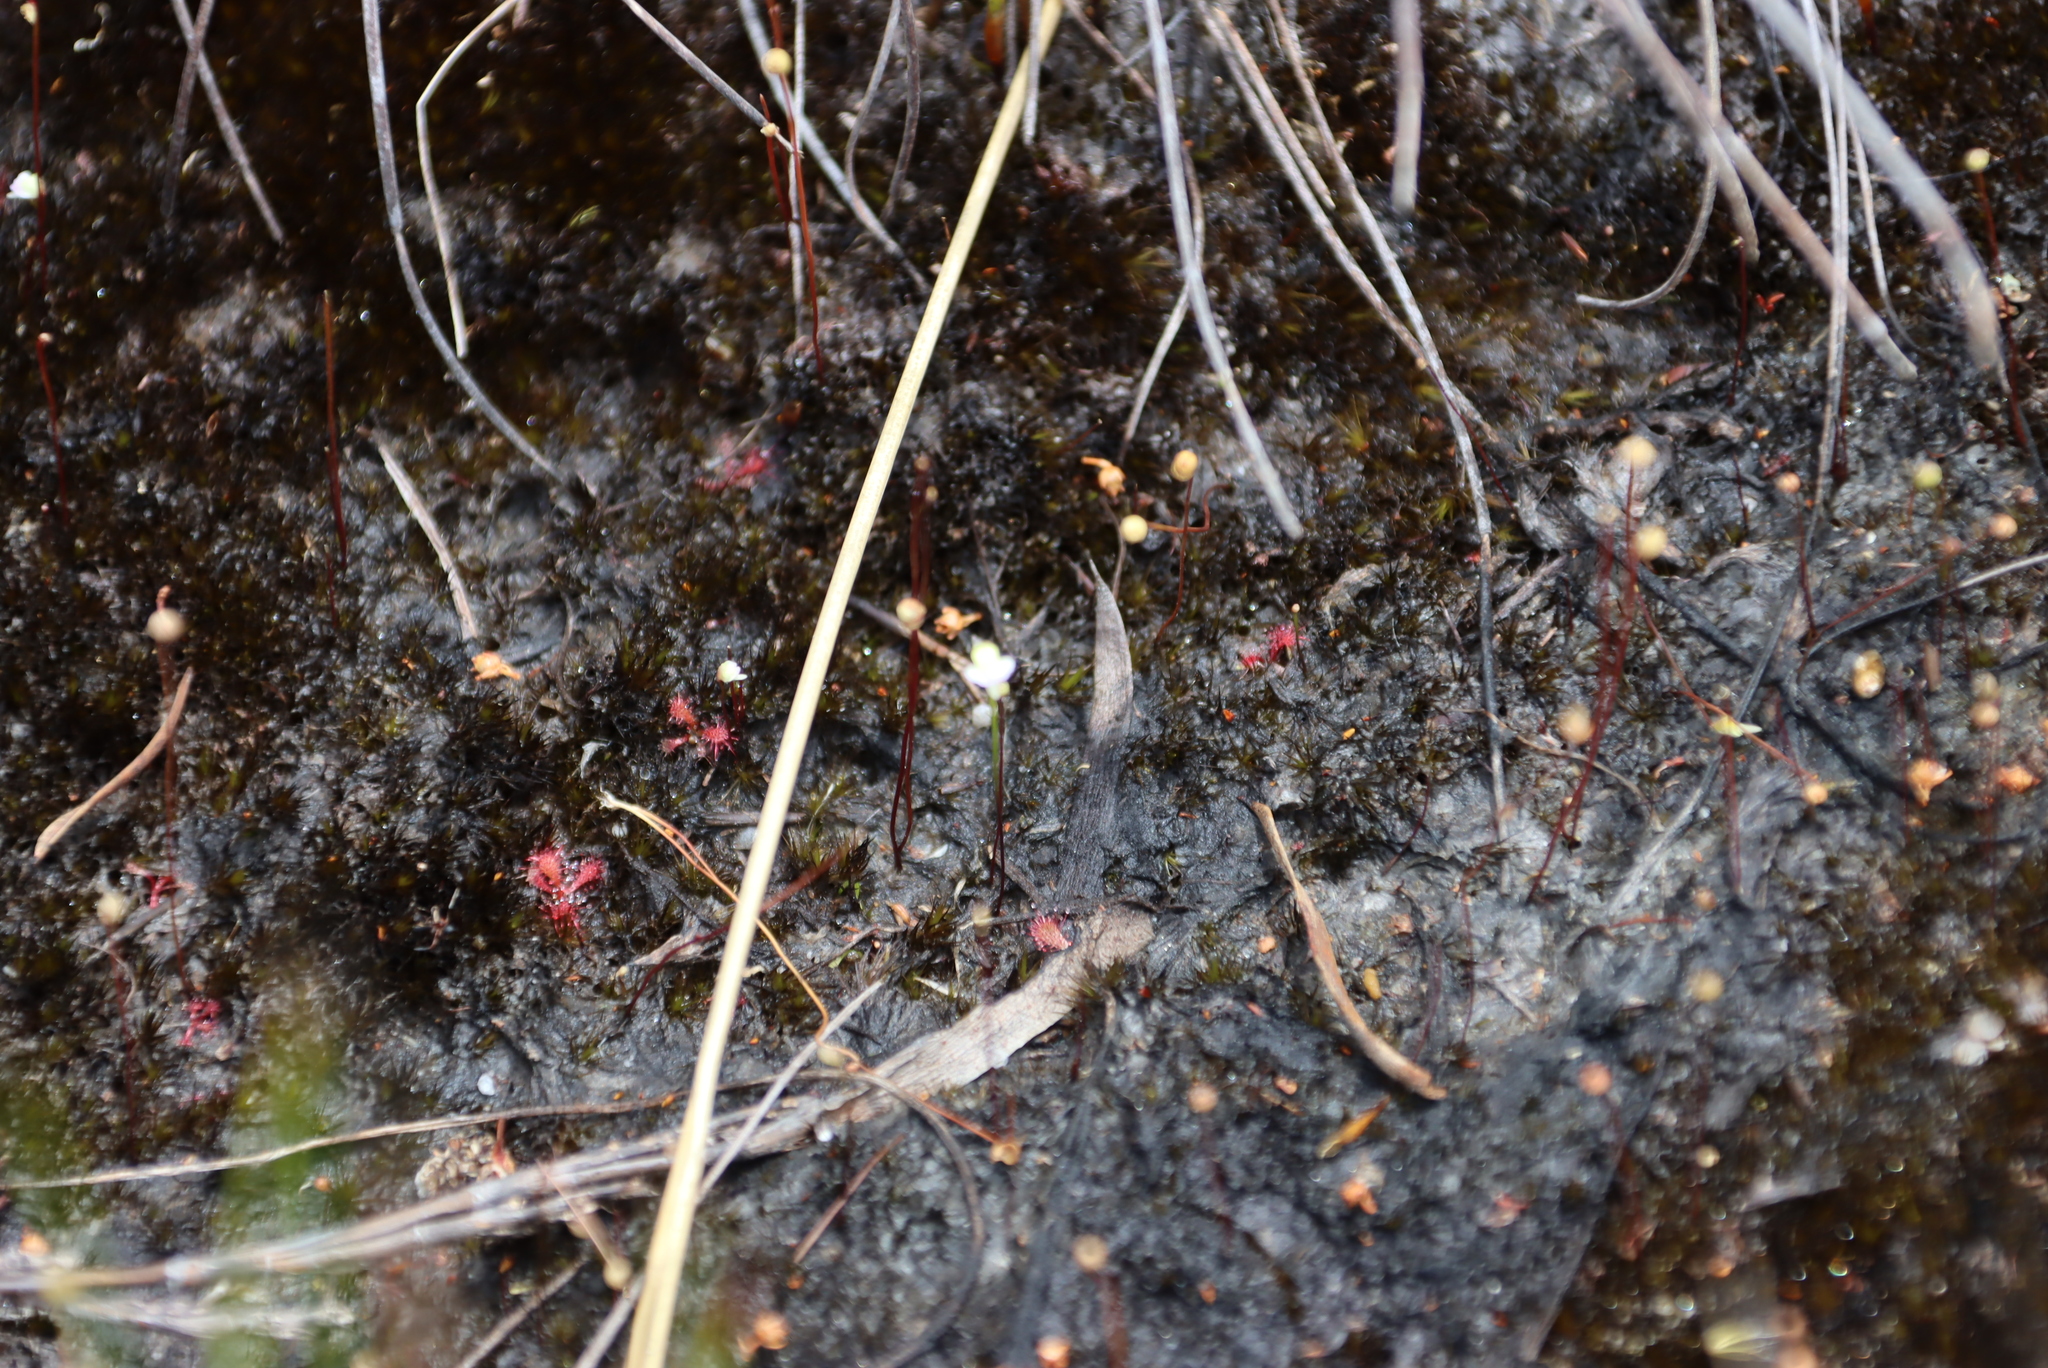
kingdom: Plantae
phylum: Tracheophyta
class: Magnoliopsida
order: Lamiales
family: Lentibulariaceae
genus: Utricularia
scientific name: Utricularia bisquamata
